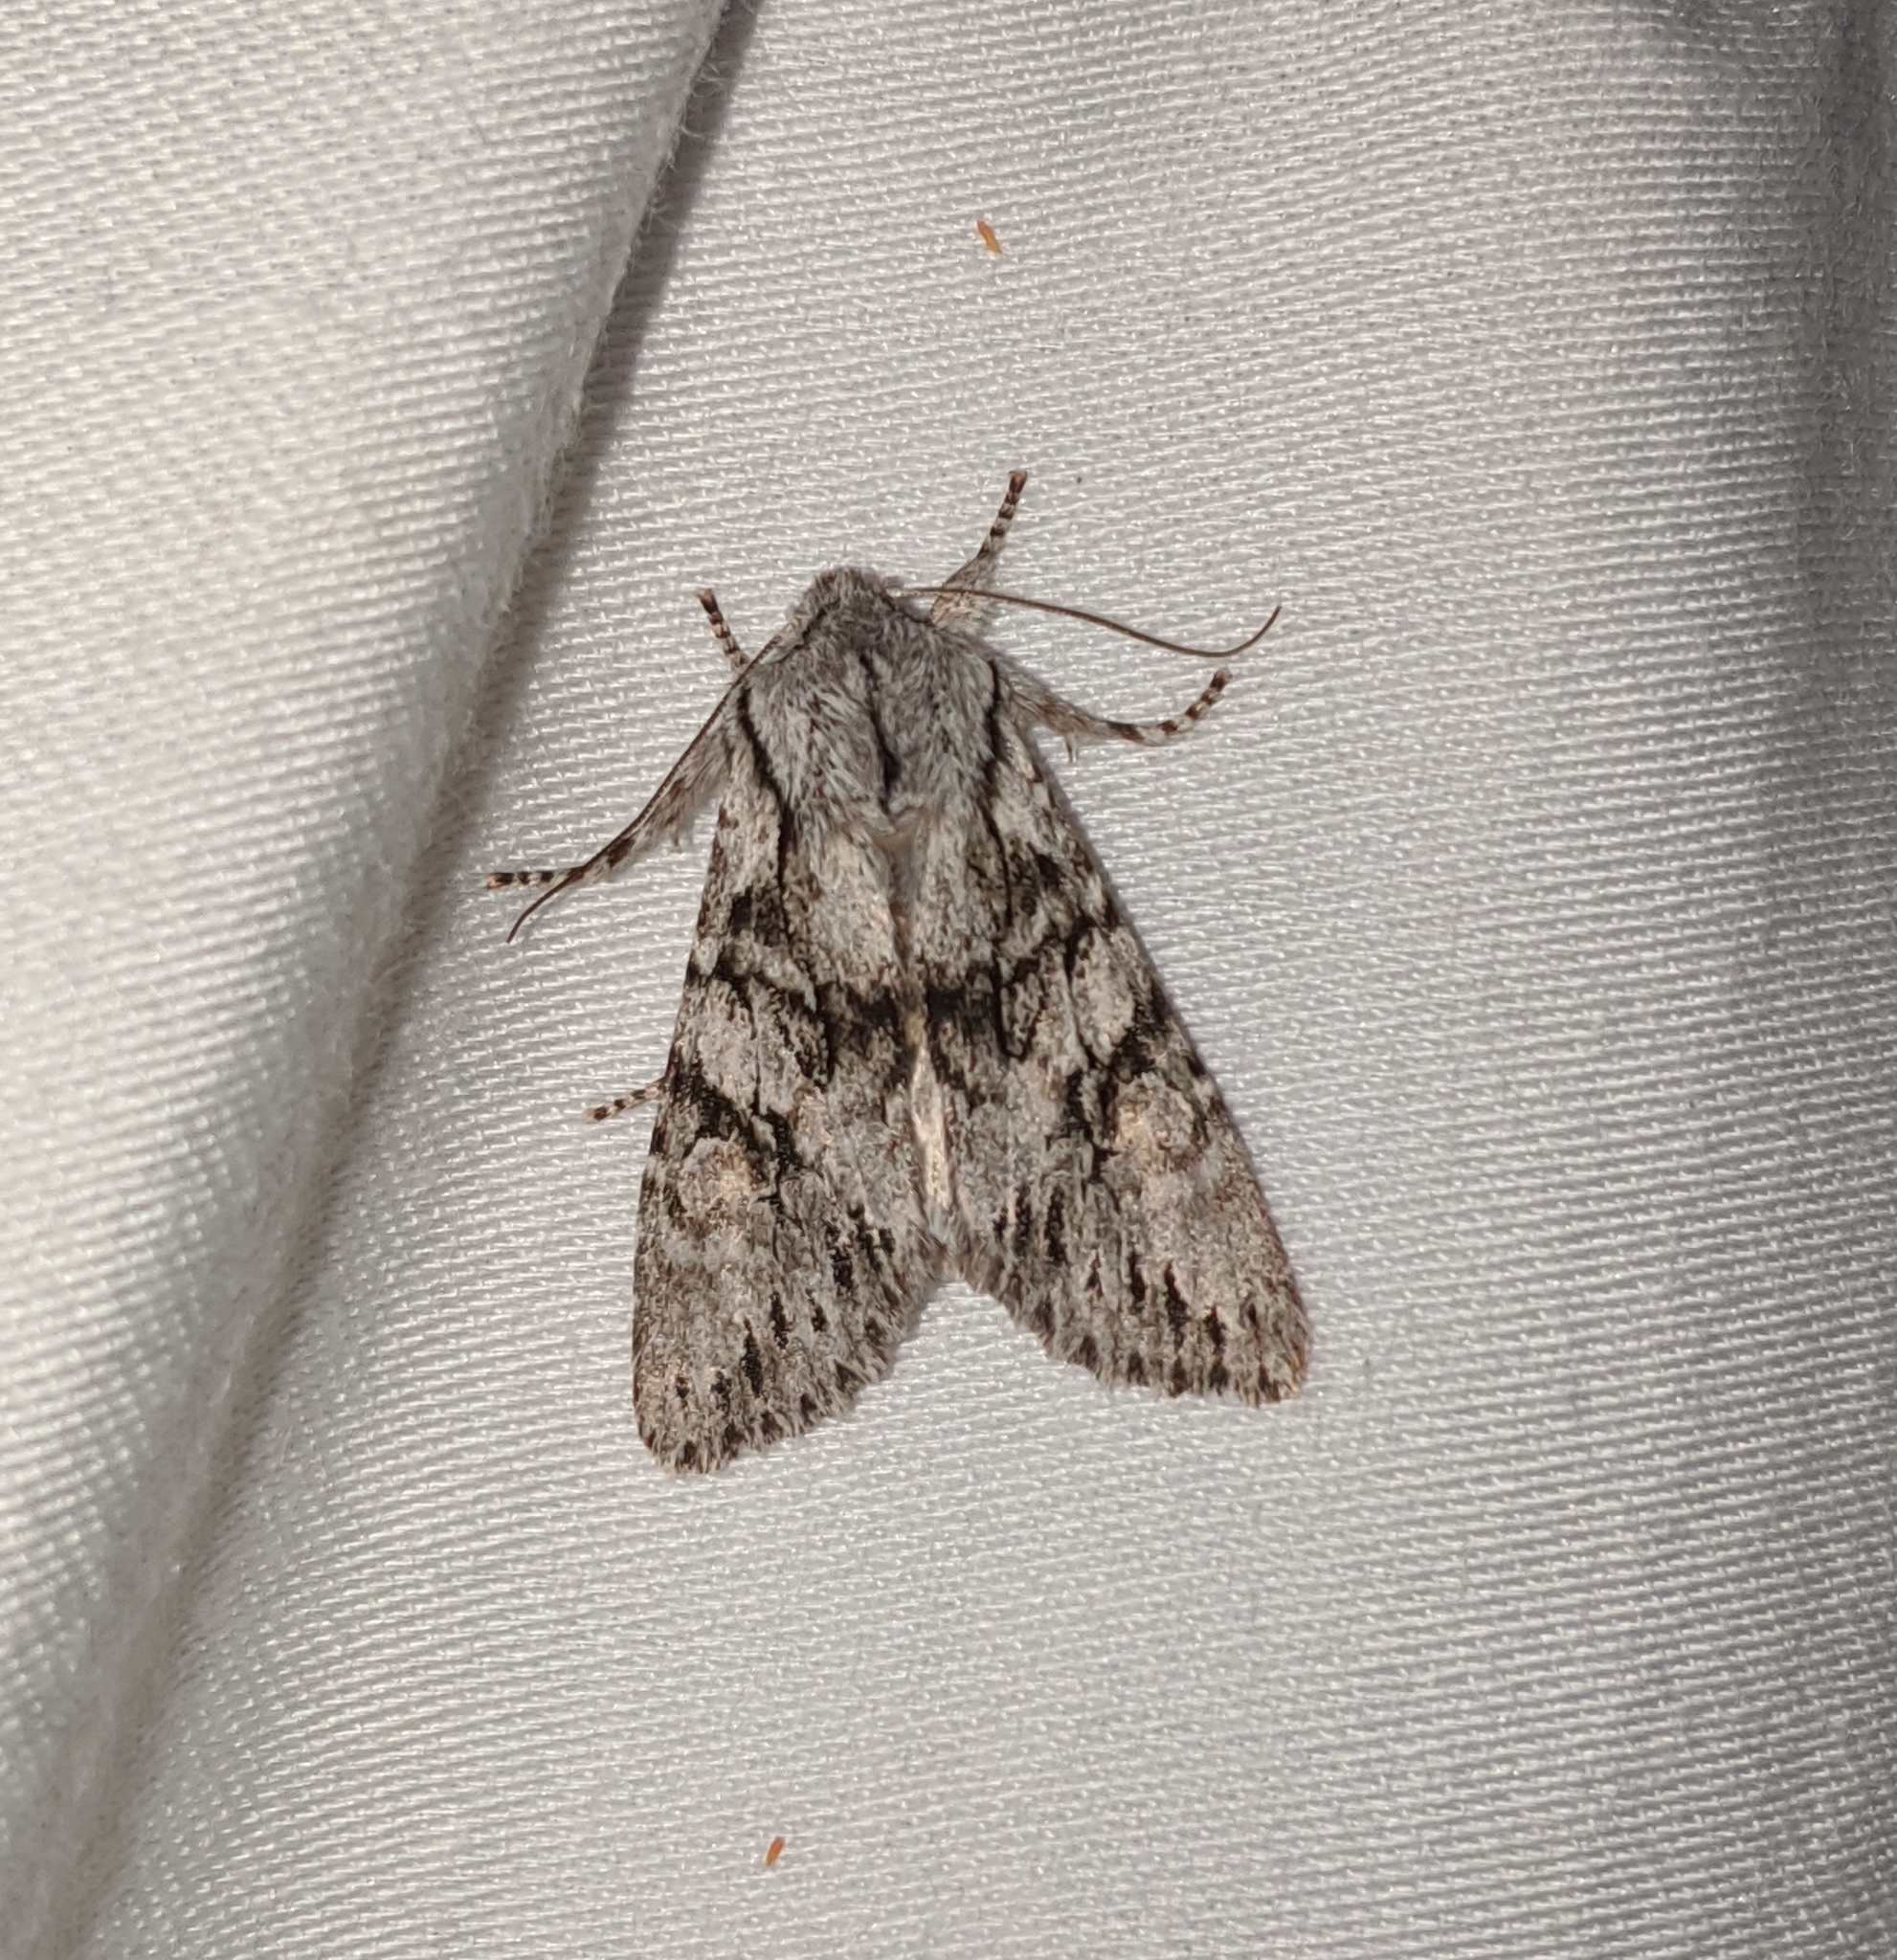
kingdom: Animalia
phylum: Arthropoda
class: Insecta
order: Lepidoptera
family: Noctuidae
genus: Egira
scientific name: Egira simplex
